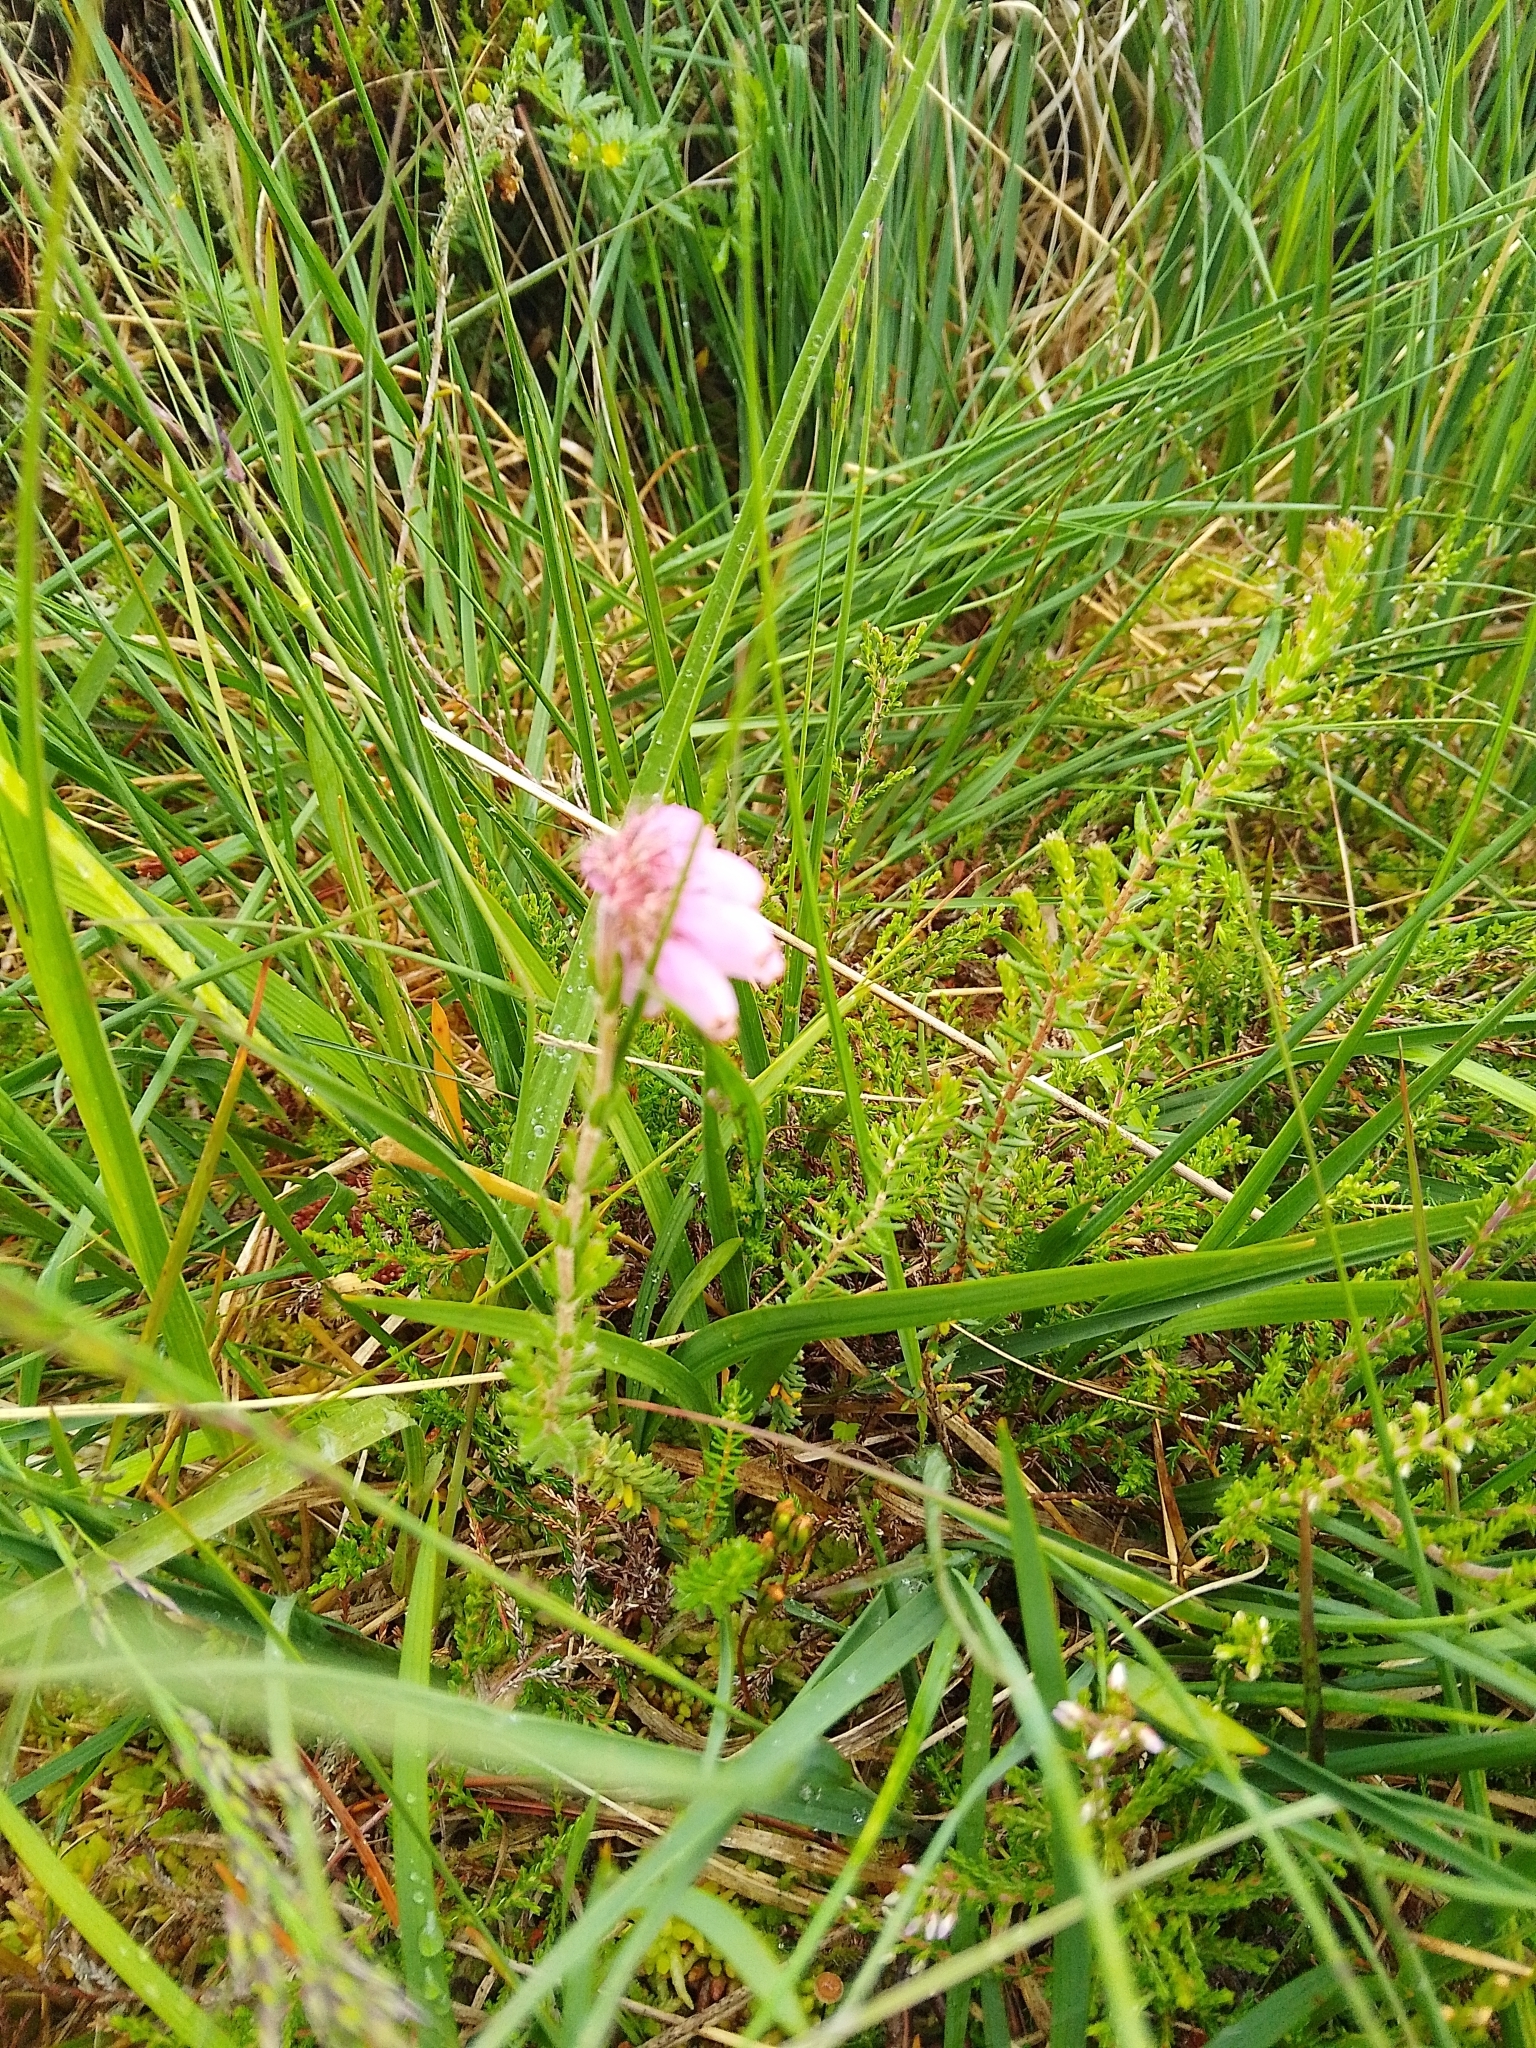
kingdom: Plantae
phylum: Tracheophyta
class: Magnoliopsida
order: Ericales
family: Ericaceae
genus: Erica
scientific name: Erica tetralix
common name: Cross-leaved heath
